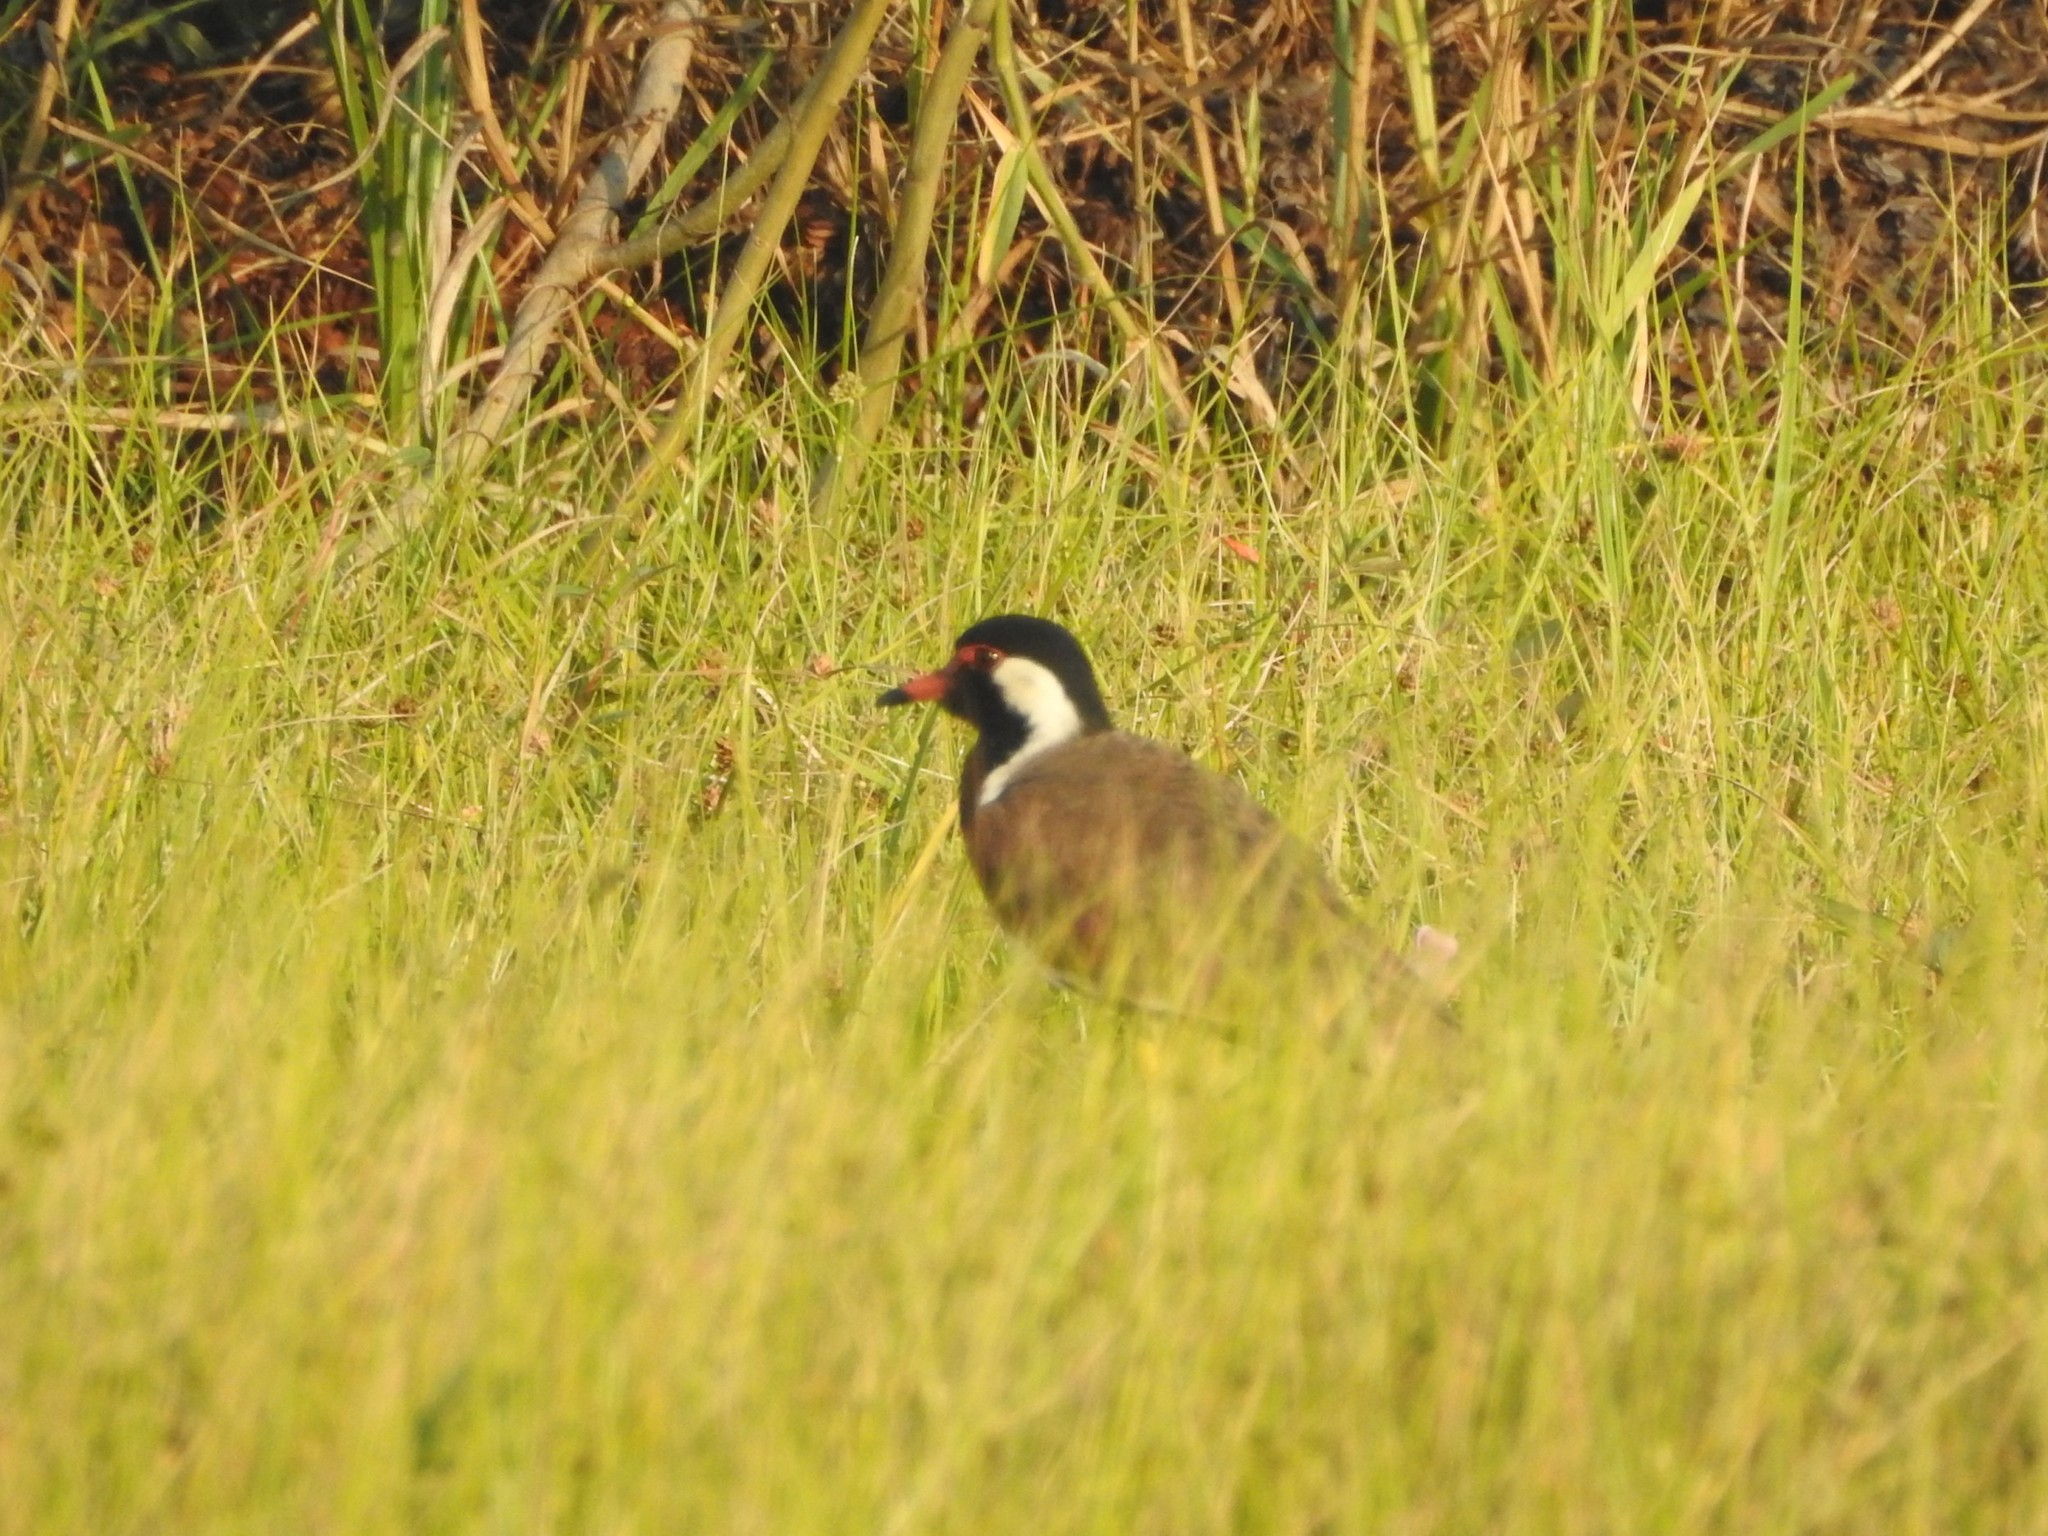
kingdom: Animalia
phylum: Chordata
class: Aves
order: Charadriiformes
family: Charadriidae
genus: Vanellus
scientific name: Vanellus indicus
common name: Red-wattled lapwing
